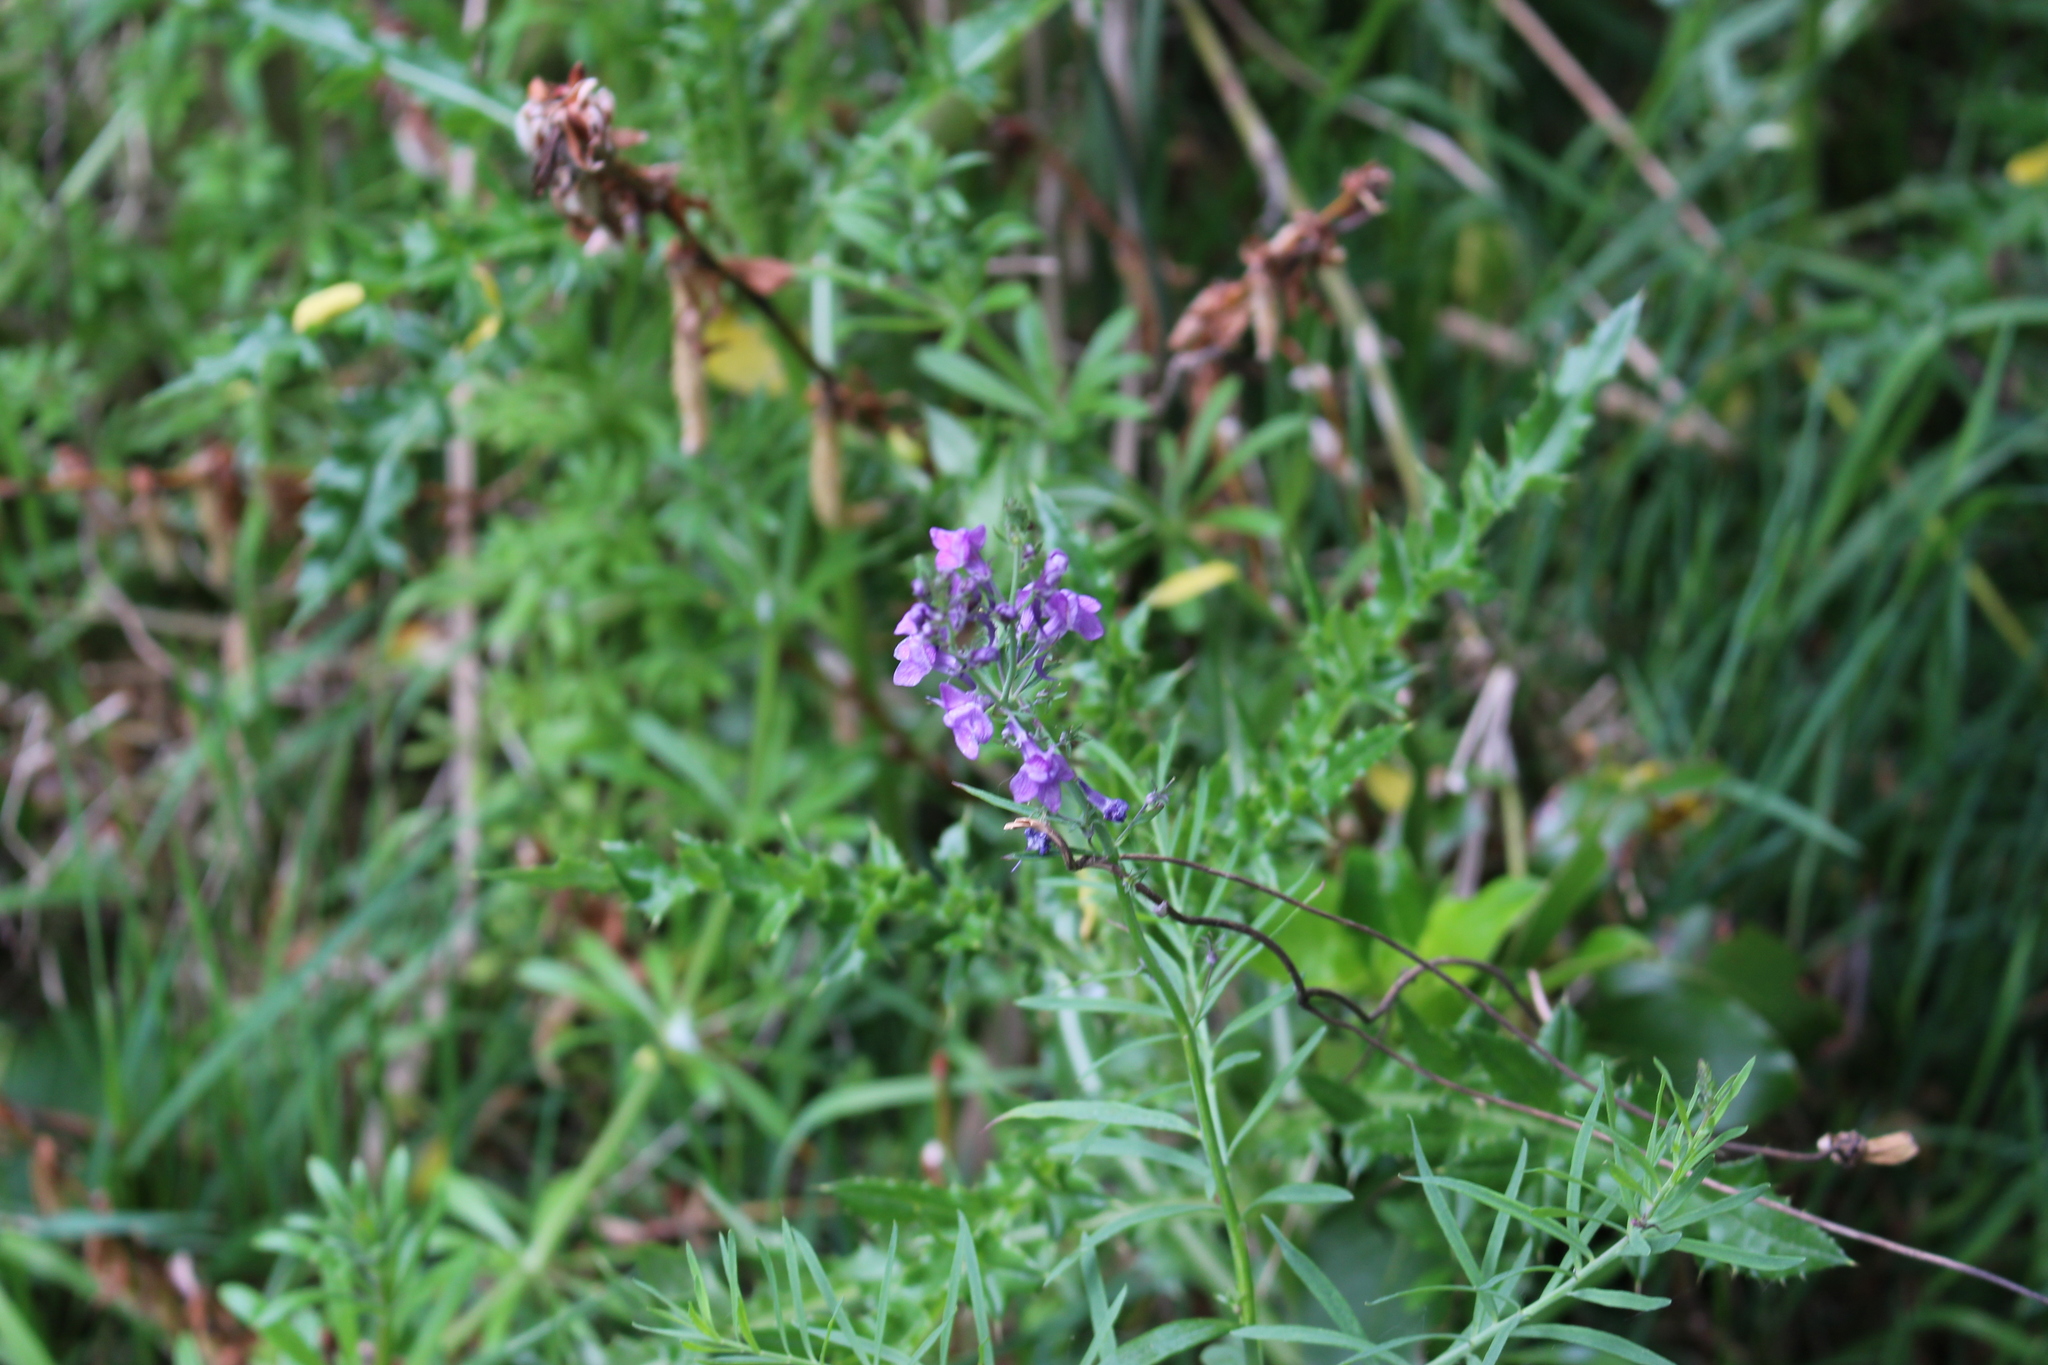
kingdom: Plantae
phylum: Tracheophyta
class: Magnoliopsida
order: Lamiales
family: Plantaginaceae
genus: Linaria
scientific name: Linaria purpurea
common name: Purple toadflax
